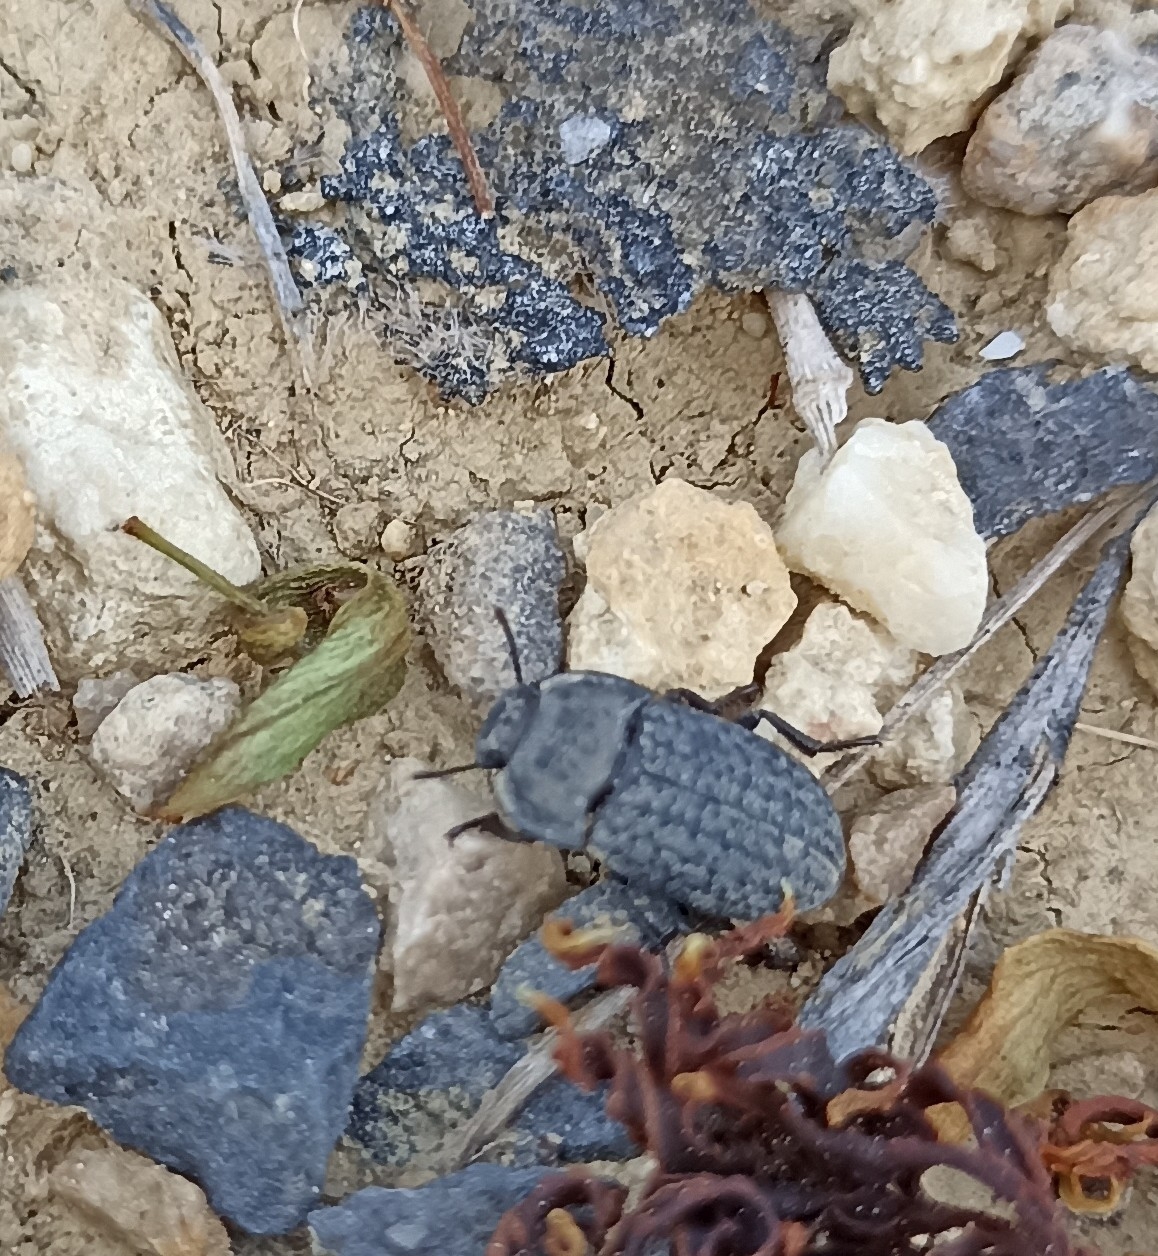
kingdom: Animalia
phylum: Arthropoda
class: Insecta
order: Coleoptera
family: Tenebrionidae
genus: Opatrum
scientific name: Opatrum sabulosum
